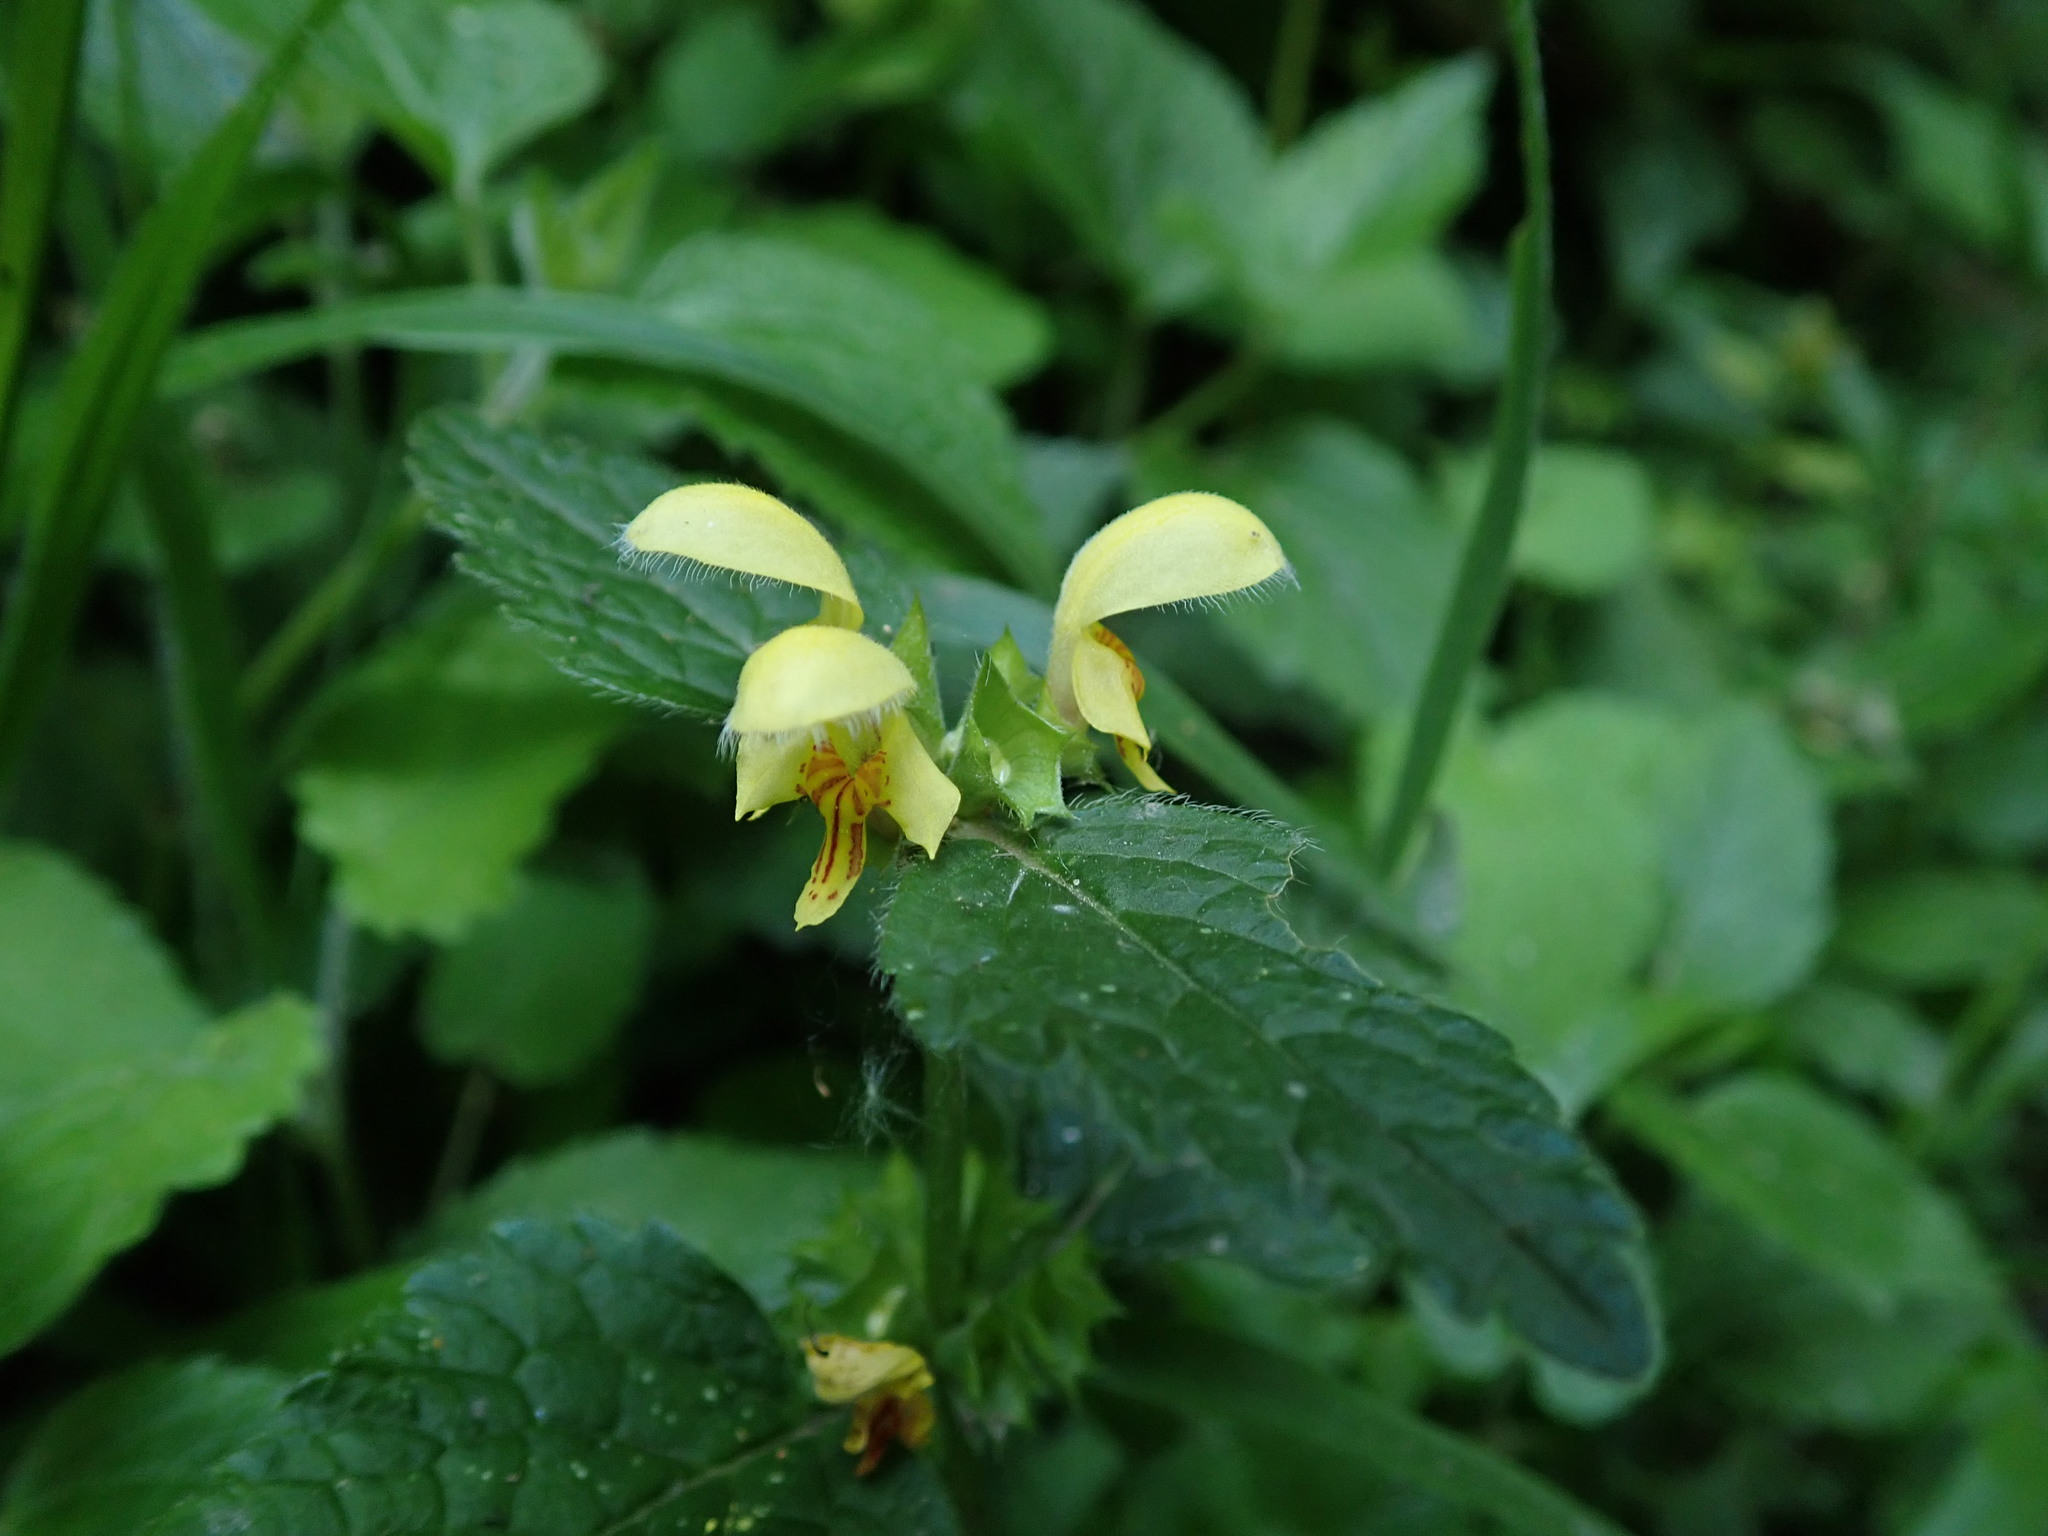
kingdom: Plantae
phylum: Tracheophyta
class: Magnoliopsida
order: Lamiales
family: Lamiaceae
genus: Lamium
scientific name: Lamium galeobdolon
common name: Yellow archangel
